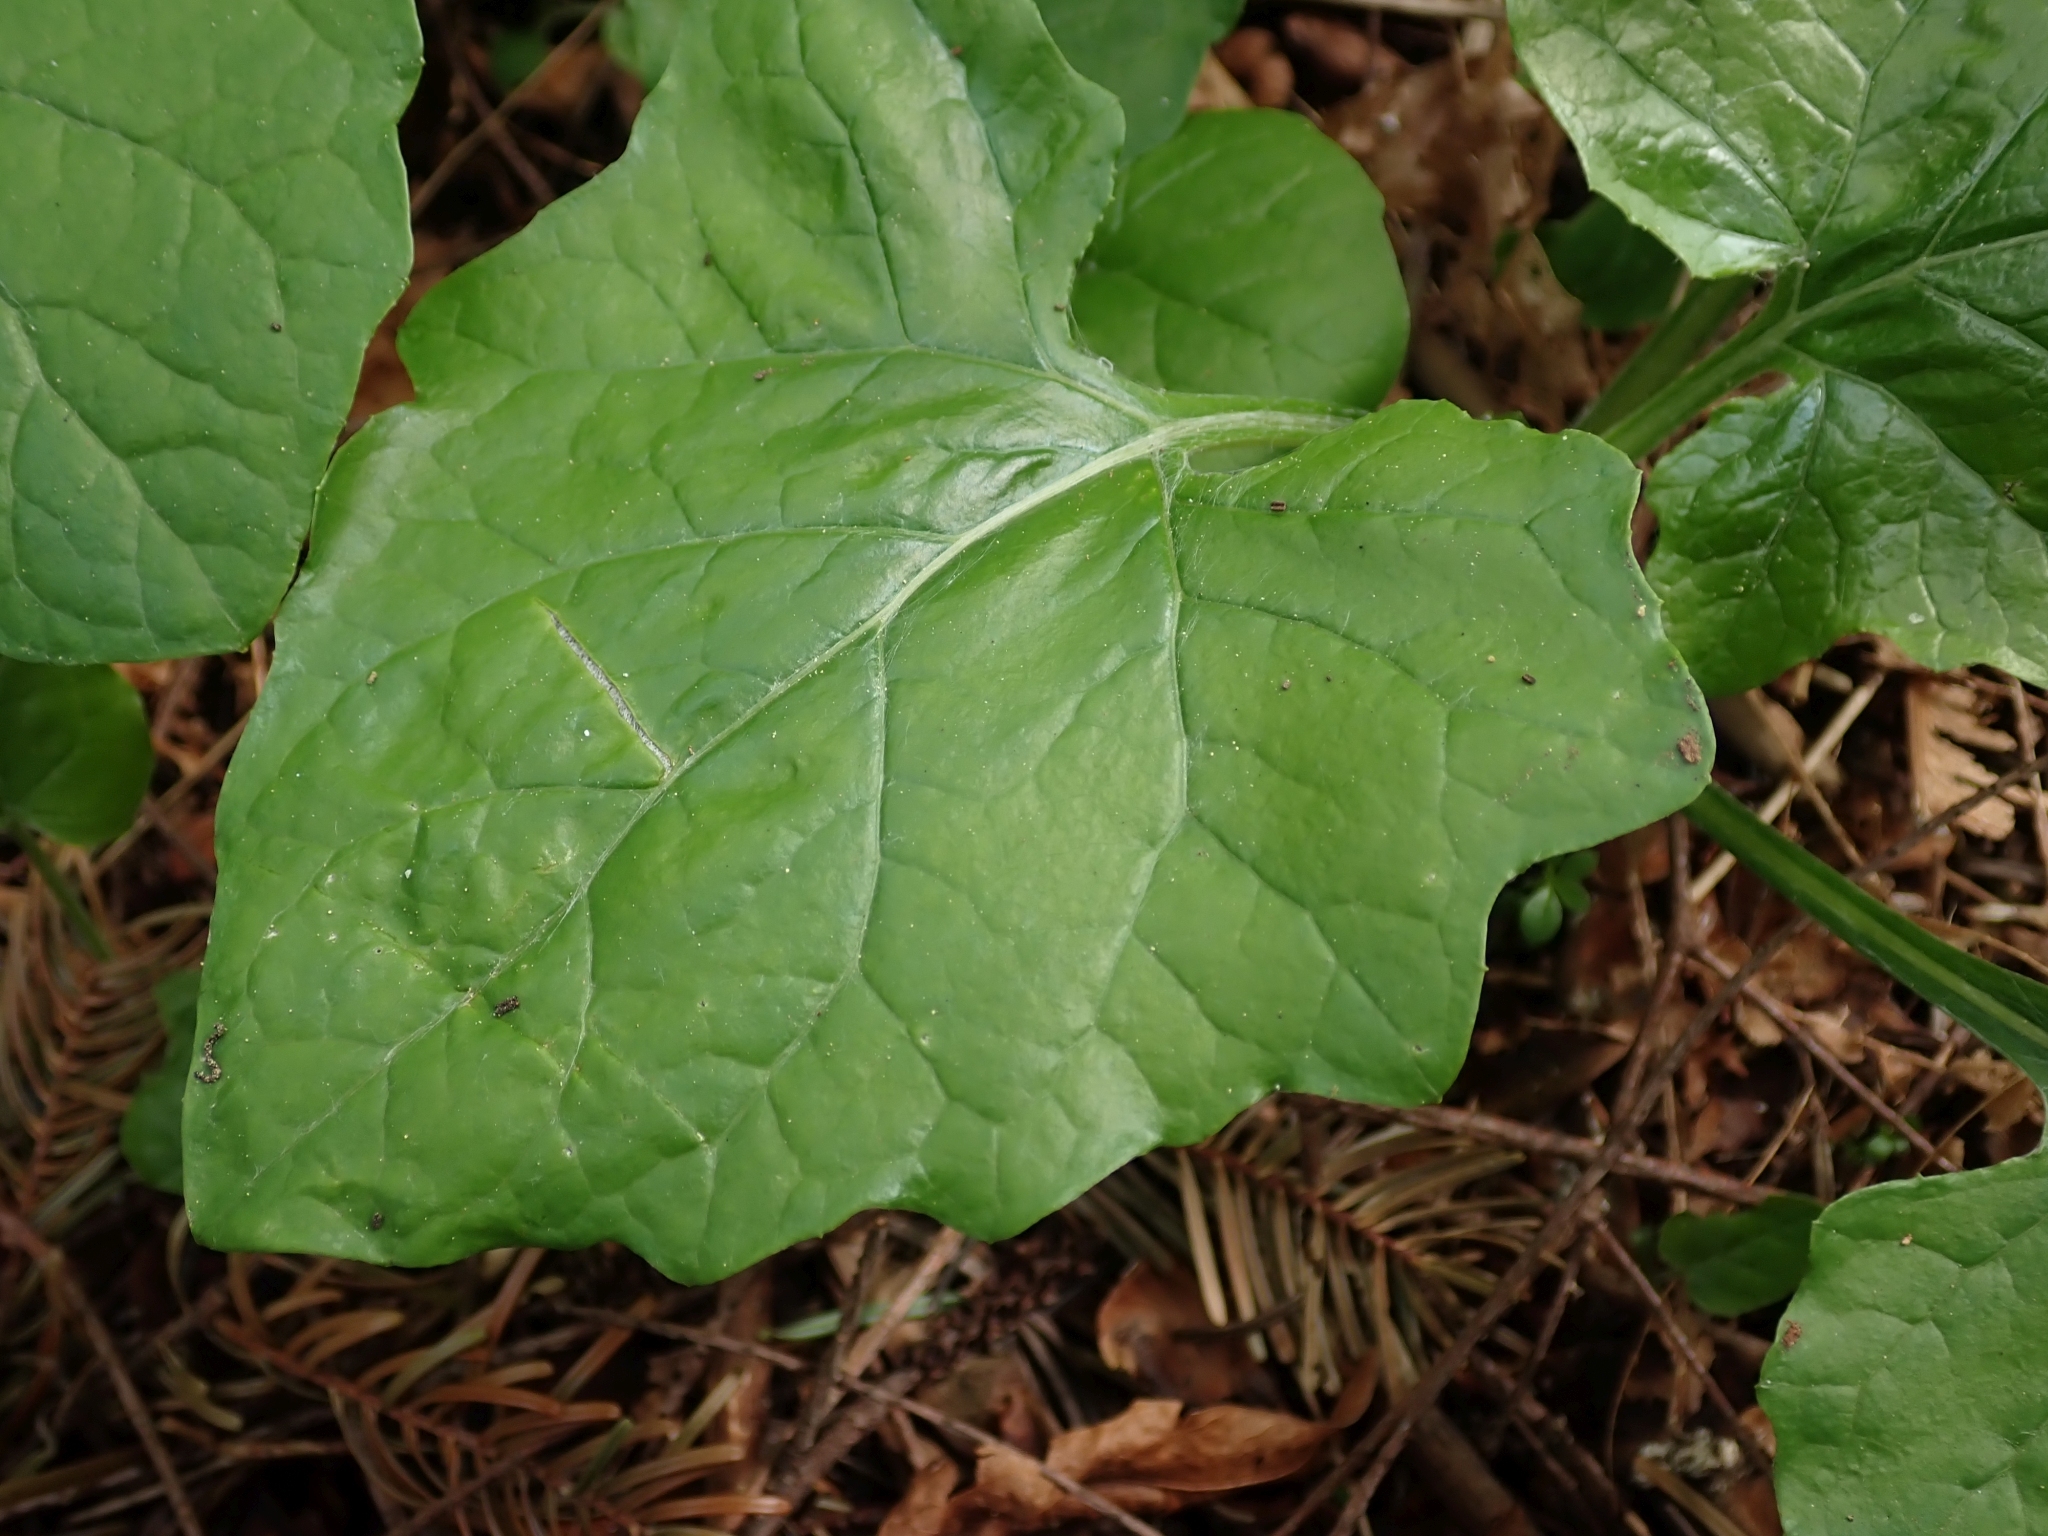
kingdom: Plantae
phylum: Tracheophyta
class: Magnoliopsida
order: Asterales
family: Asteraceae
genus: Adenocaulon
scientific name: Adenocaulon bicolor
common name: Trailplant
